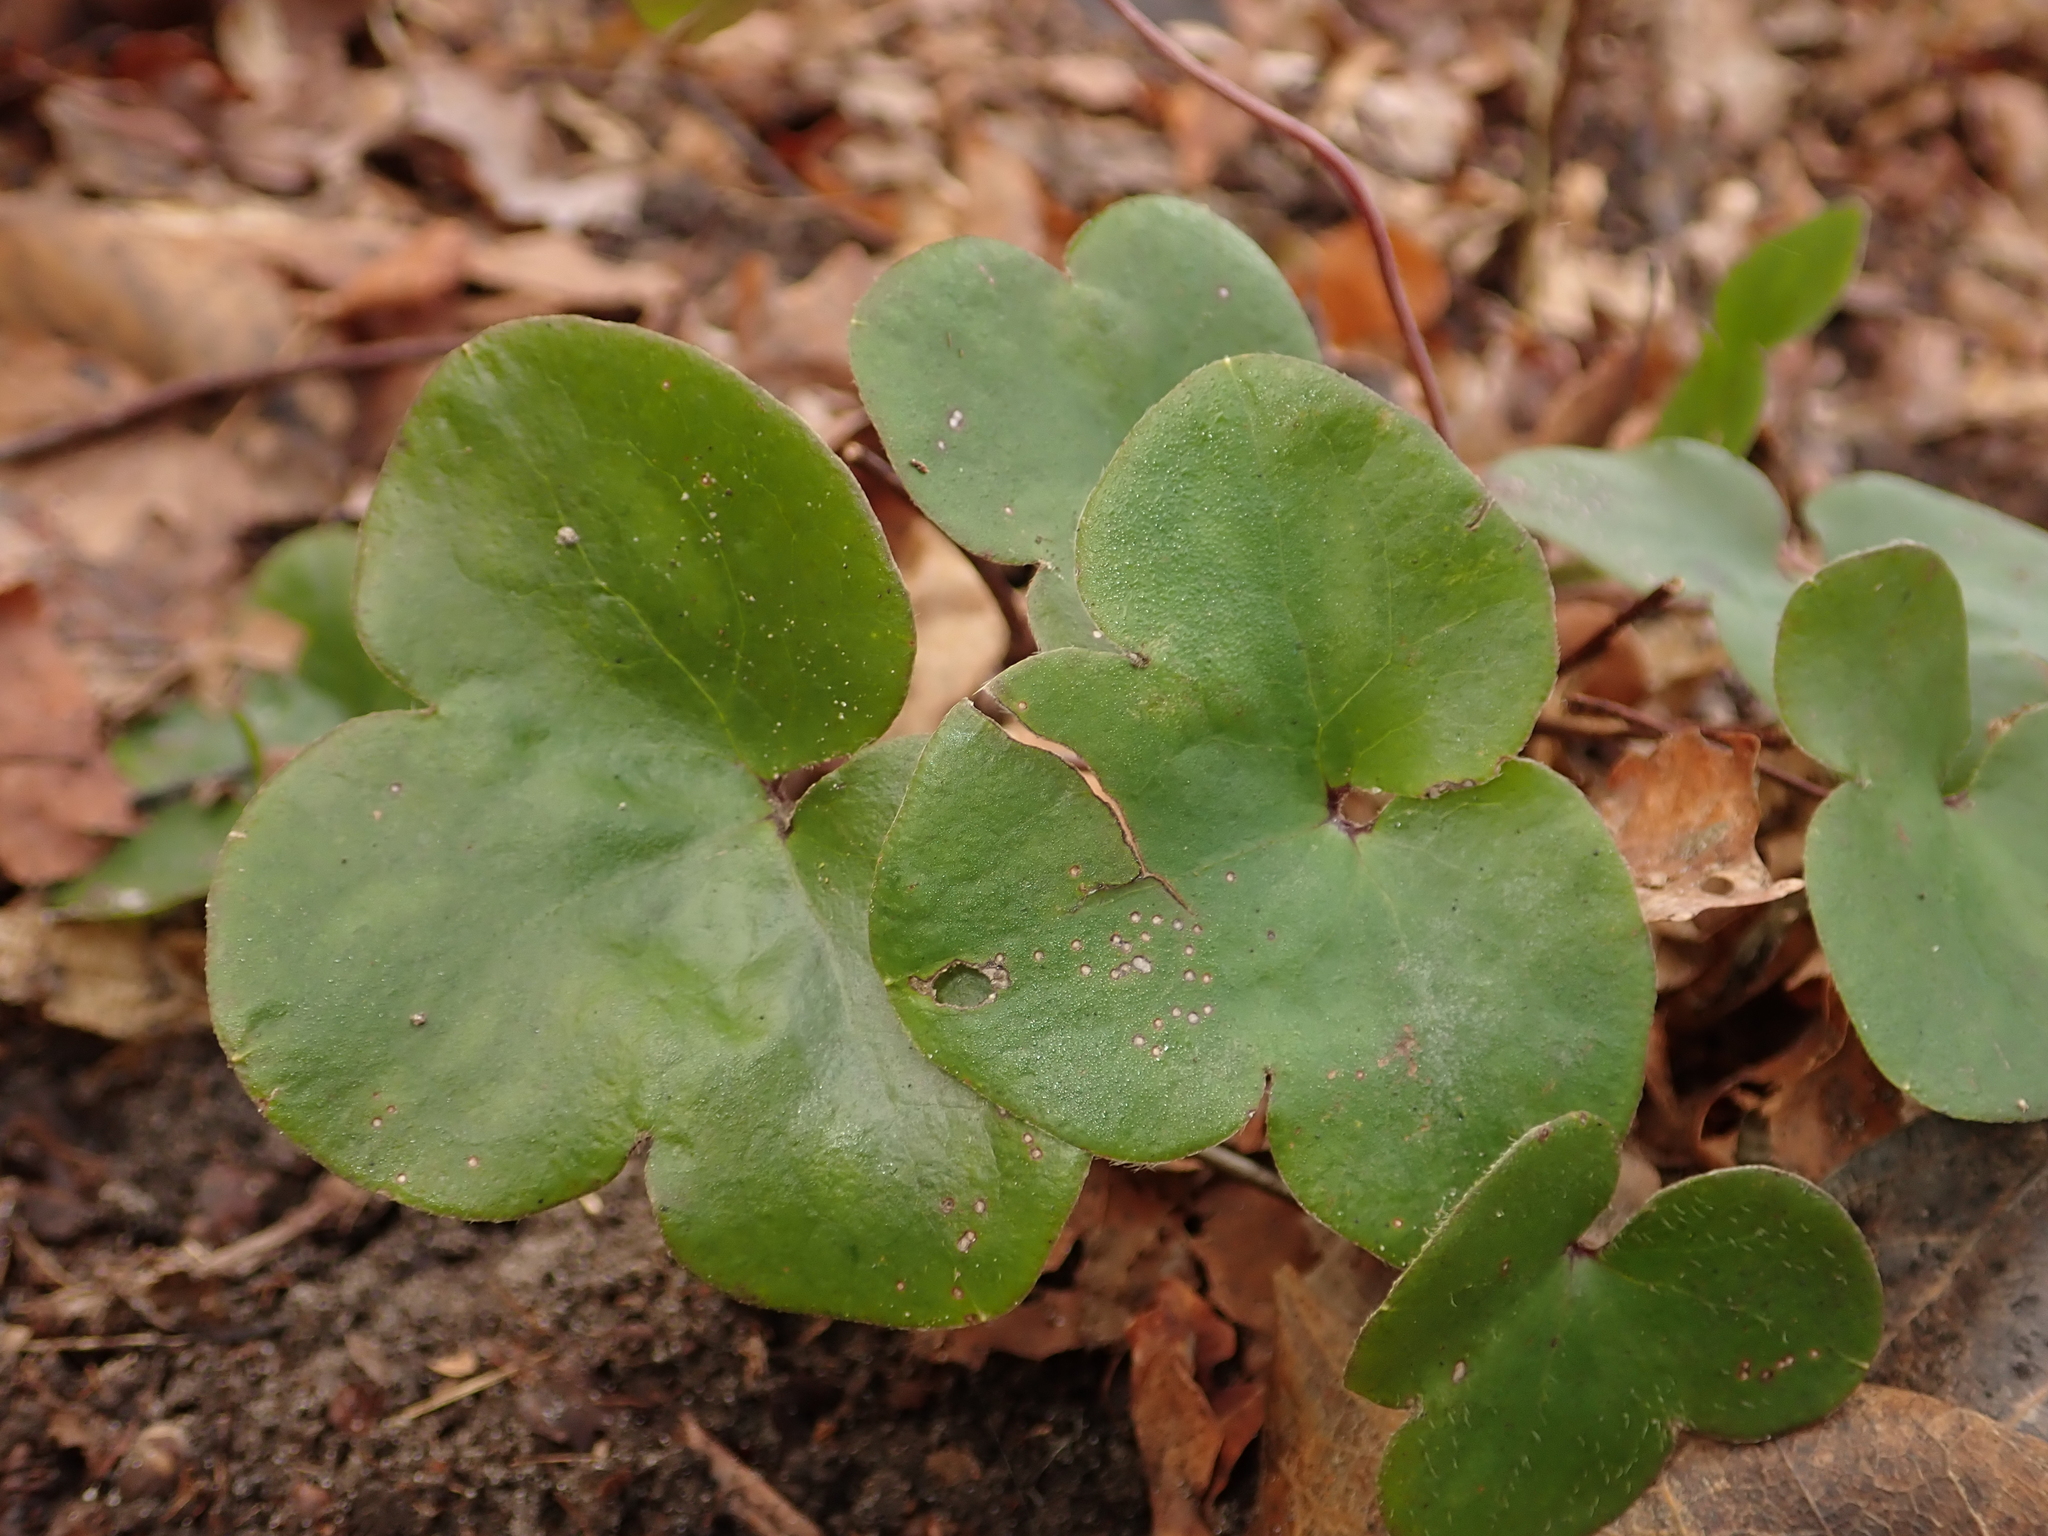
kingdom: Plantae
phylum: Tracheophyta
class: Magnoliopsida
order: Ranunculales
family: Ranunculaceae
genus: Hepatica
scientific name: Hepatica nobilis
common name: Liverleaf
